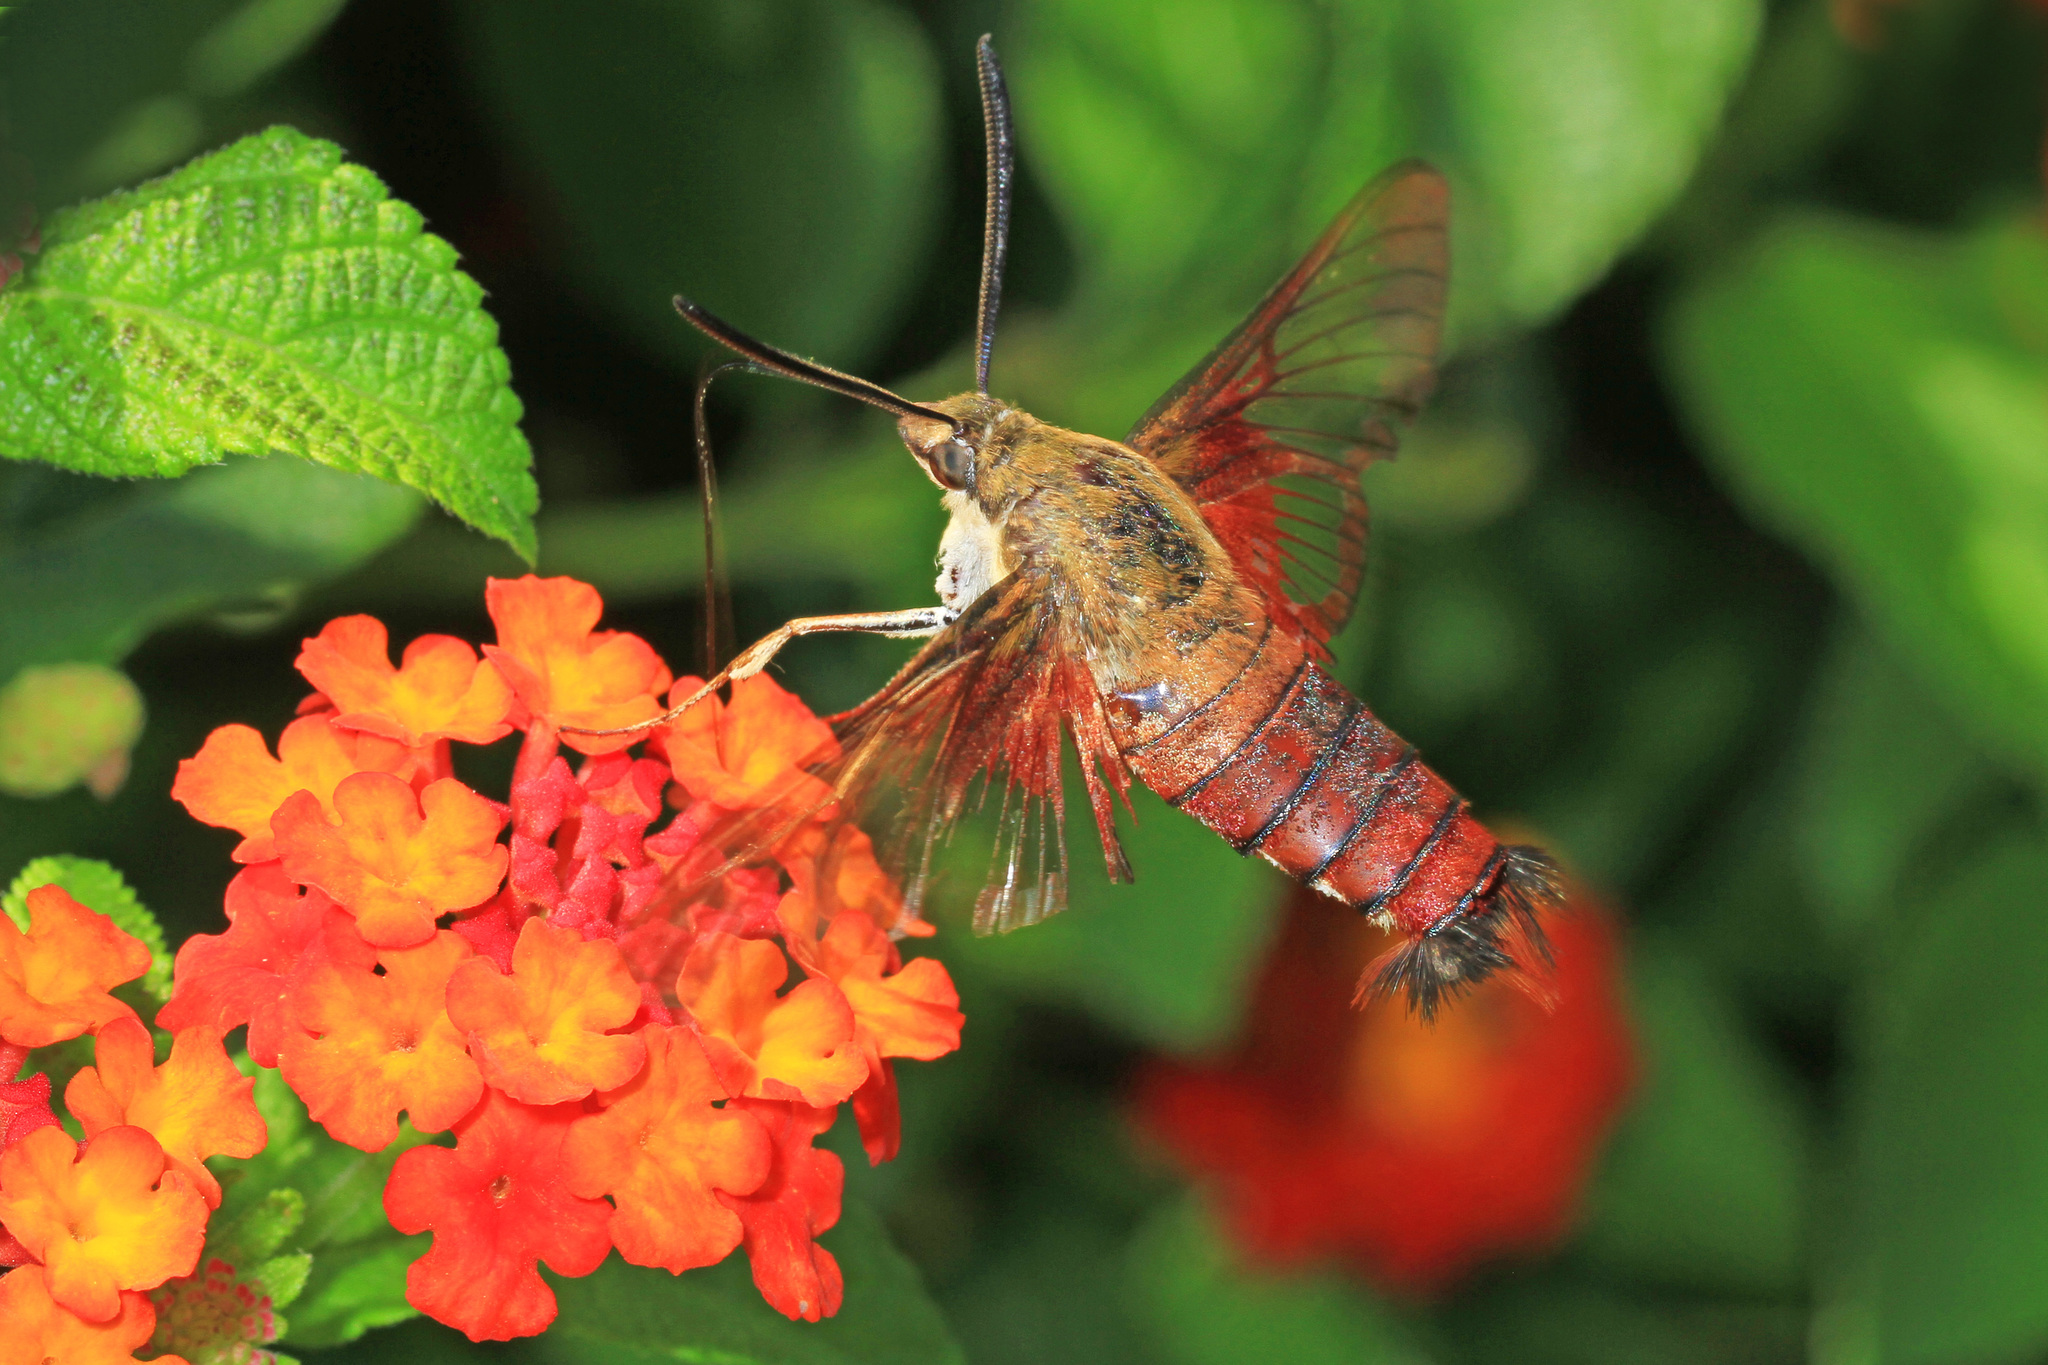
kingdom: Animalia
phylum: Arthropoda
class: Insecta
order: Lepidoptera
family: Sphingidae
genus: Hemaris
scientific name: Hemaris thysbe
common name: Common clear-wing
